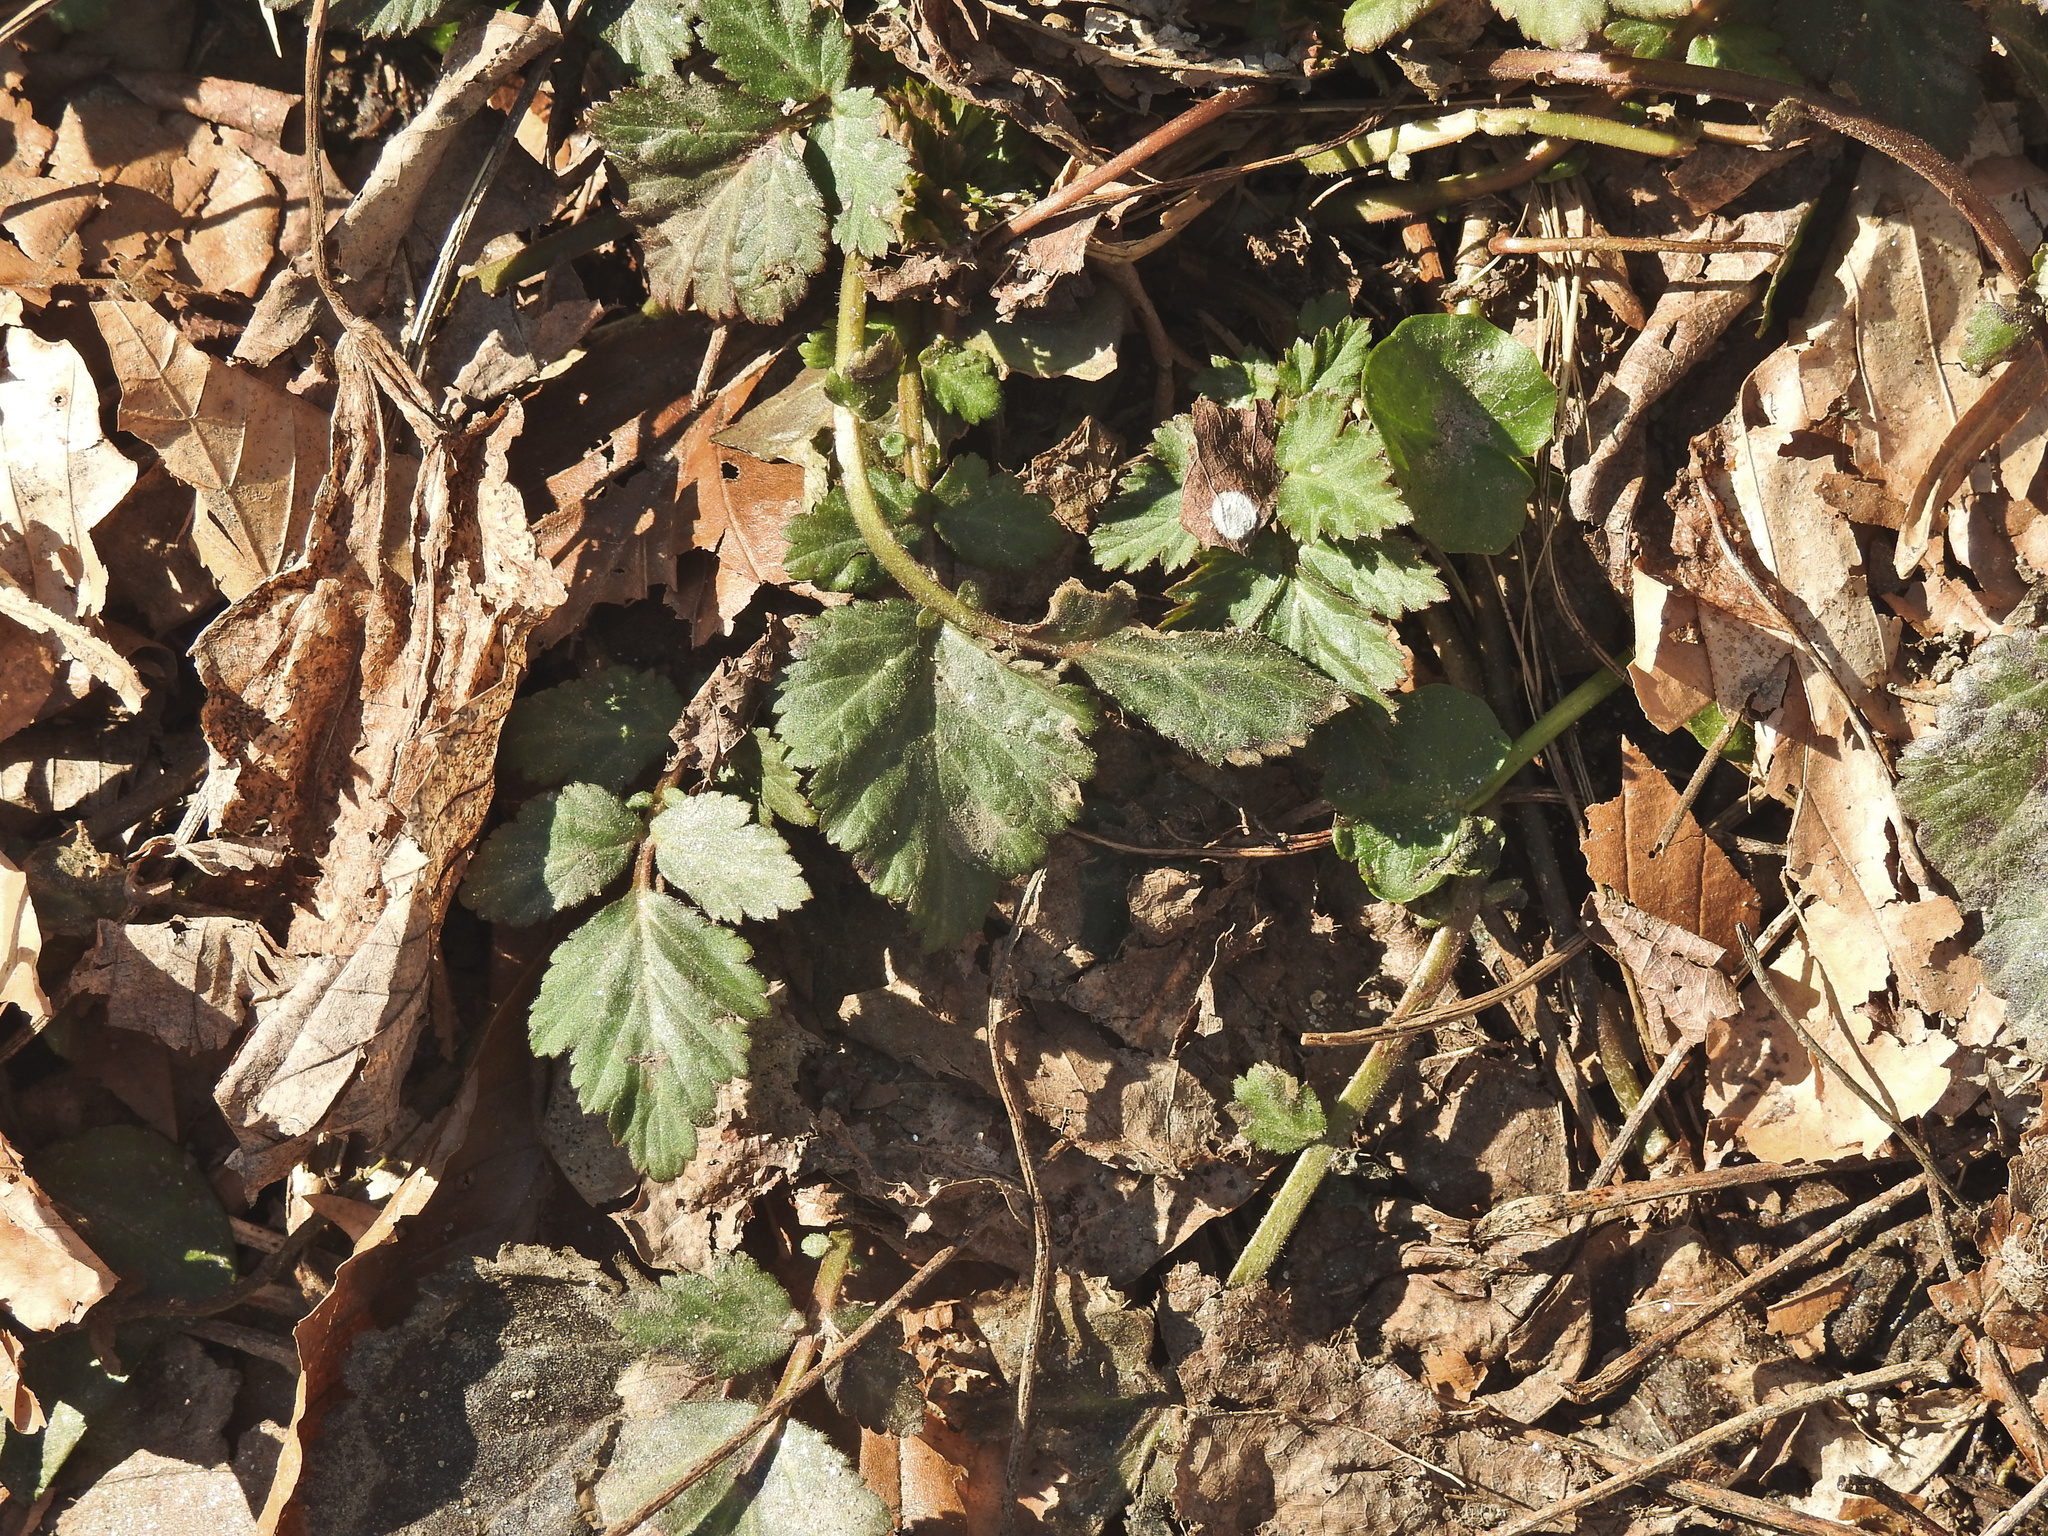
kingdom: Plantae
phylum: Tracheophyta
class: Magnoliopsida
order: Rosales
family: Rosaceae
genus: Geum
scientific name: Geum canadense
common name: White avens
